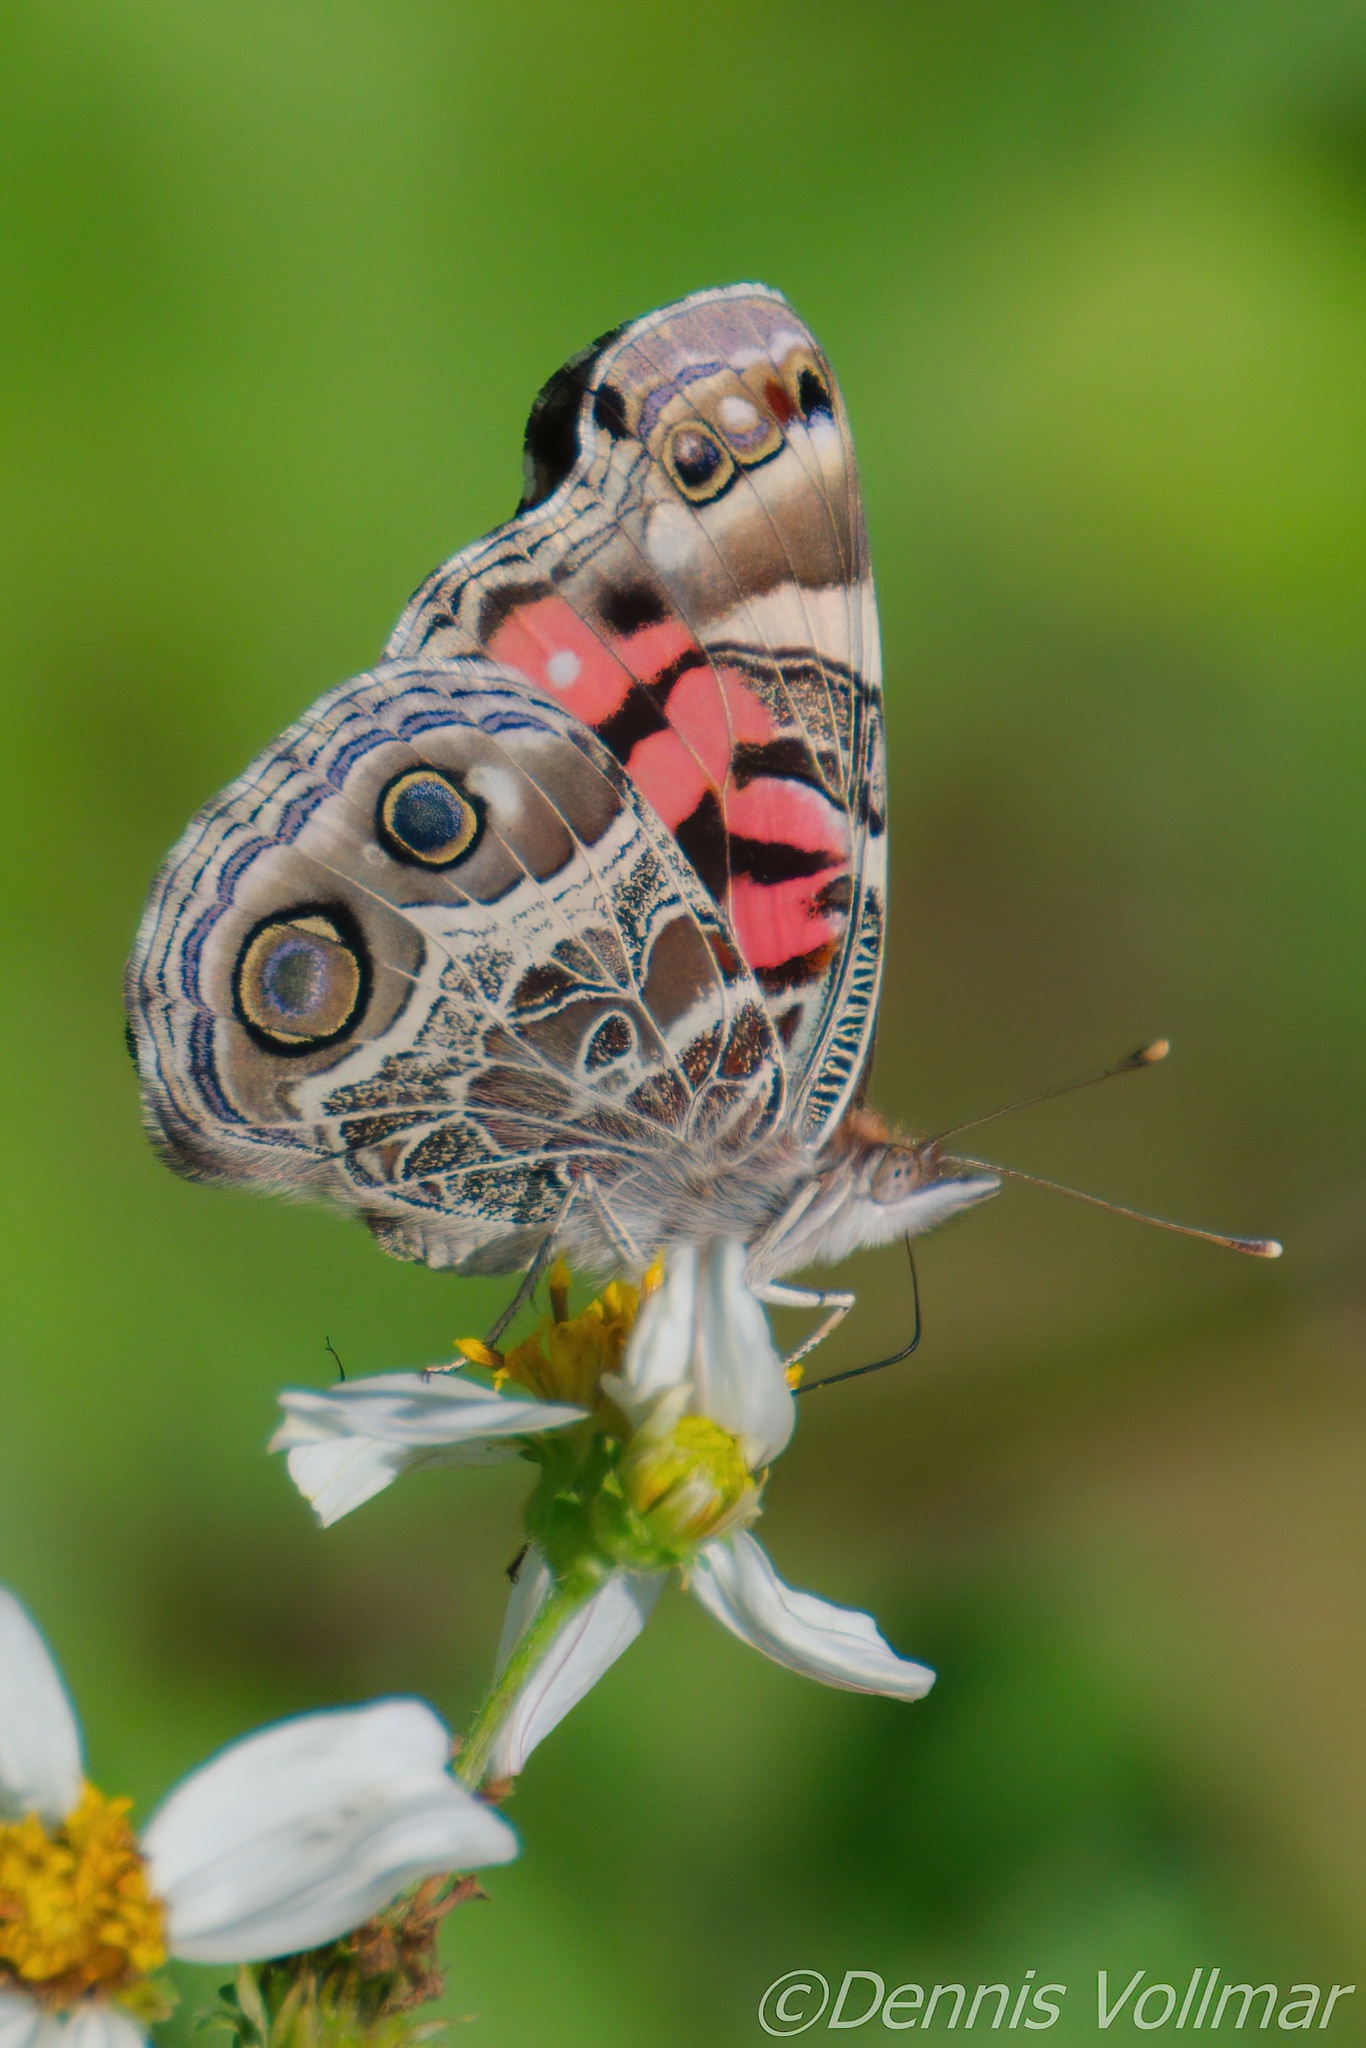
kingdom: Animalia
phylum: Arthropoda
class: Insecta
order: Lepidoptera
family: Nymphalidae
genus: Vanessa
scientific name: Vanessa virginiensis
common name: American lady
